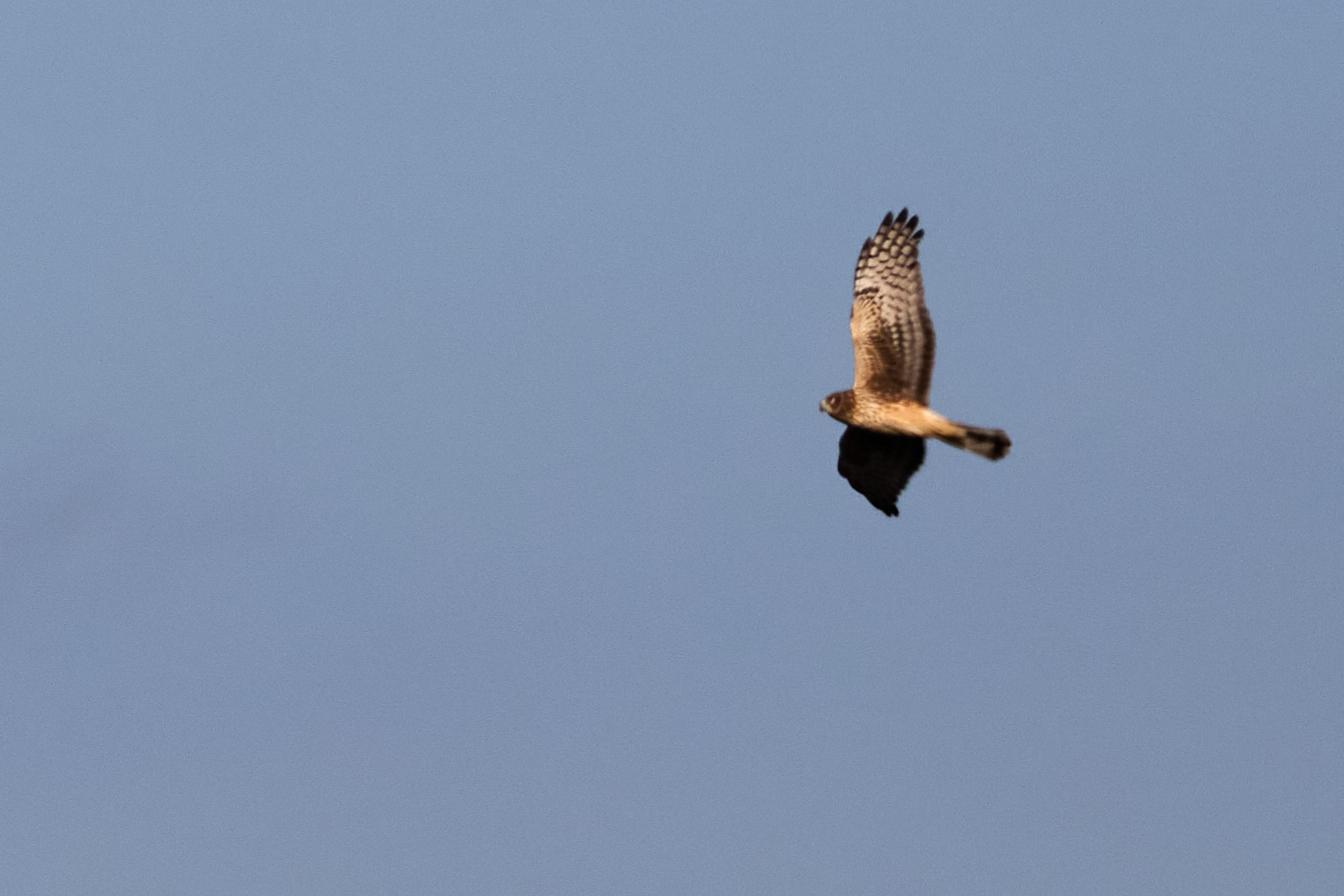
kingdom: Animalia
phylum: Chordata
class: Aves
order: Accipitriformes
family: Accipitridae
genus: Circus
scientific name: Circus cyaneus
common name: Hen harrier
